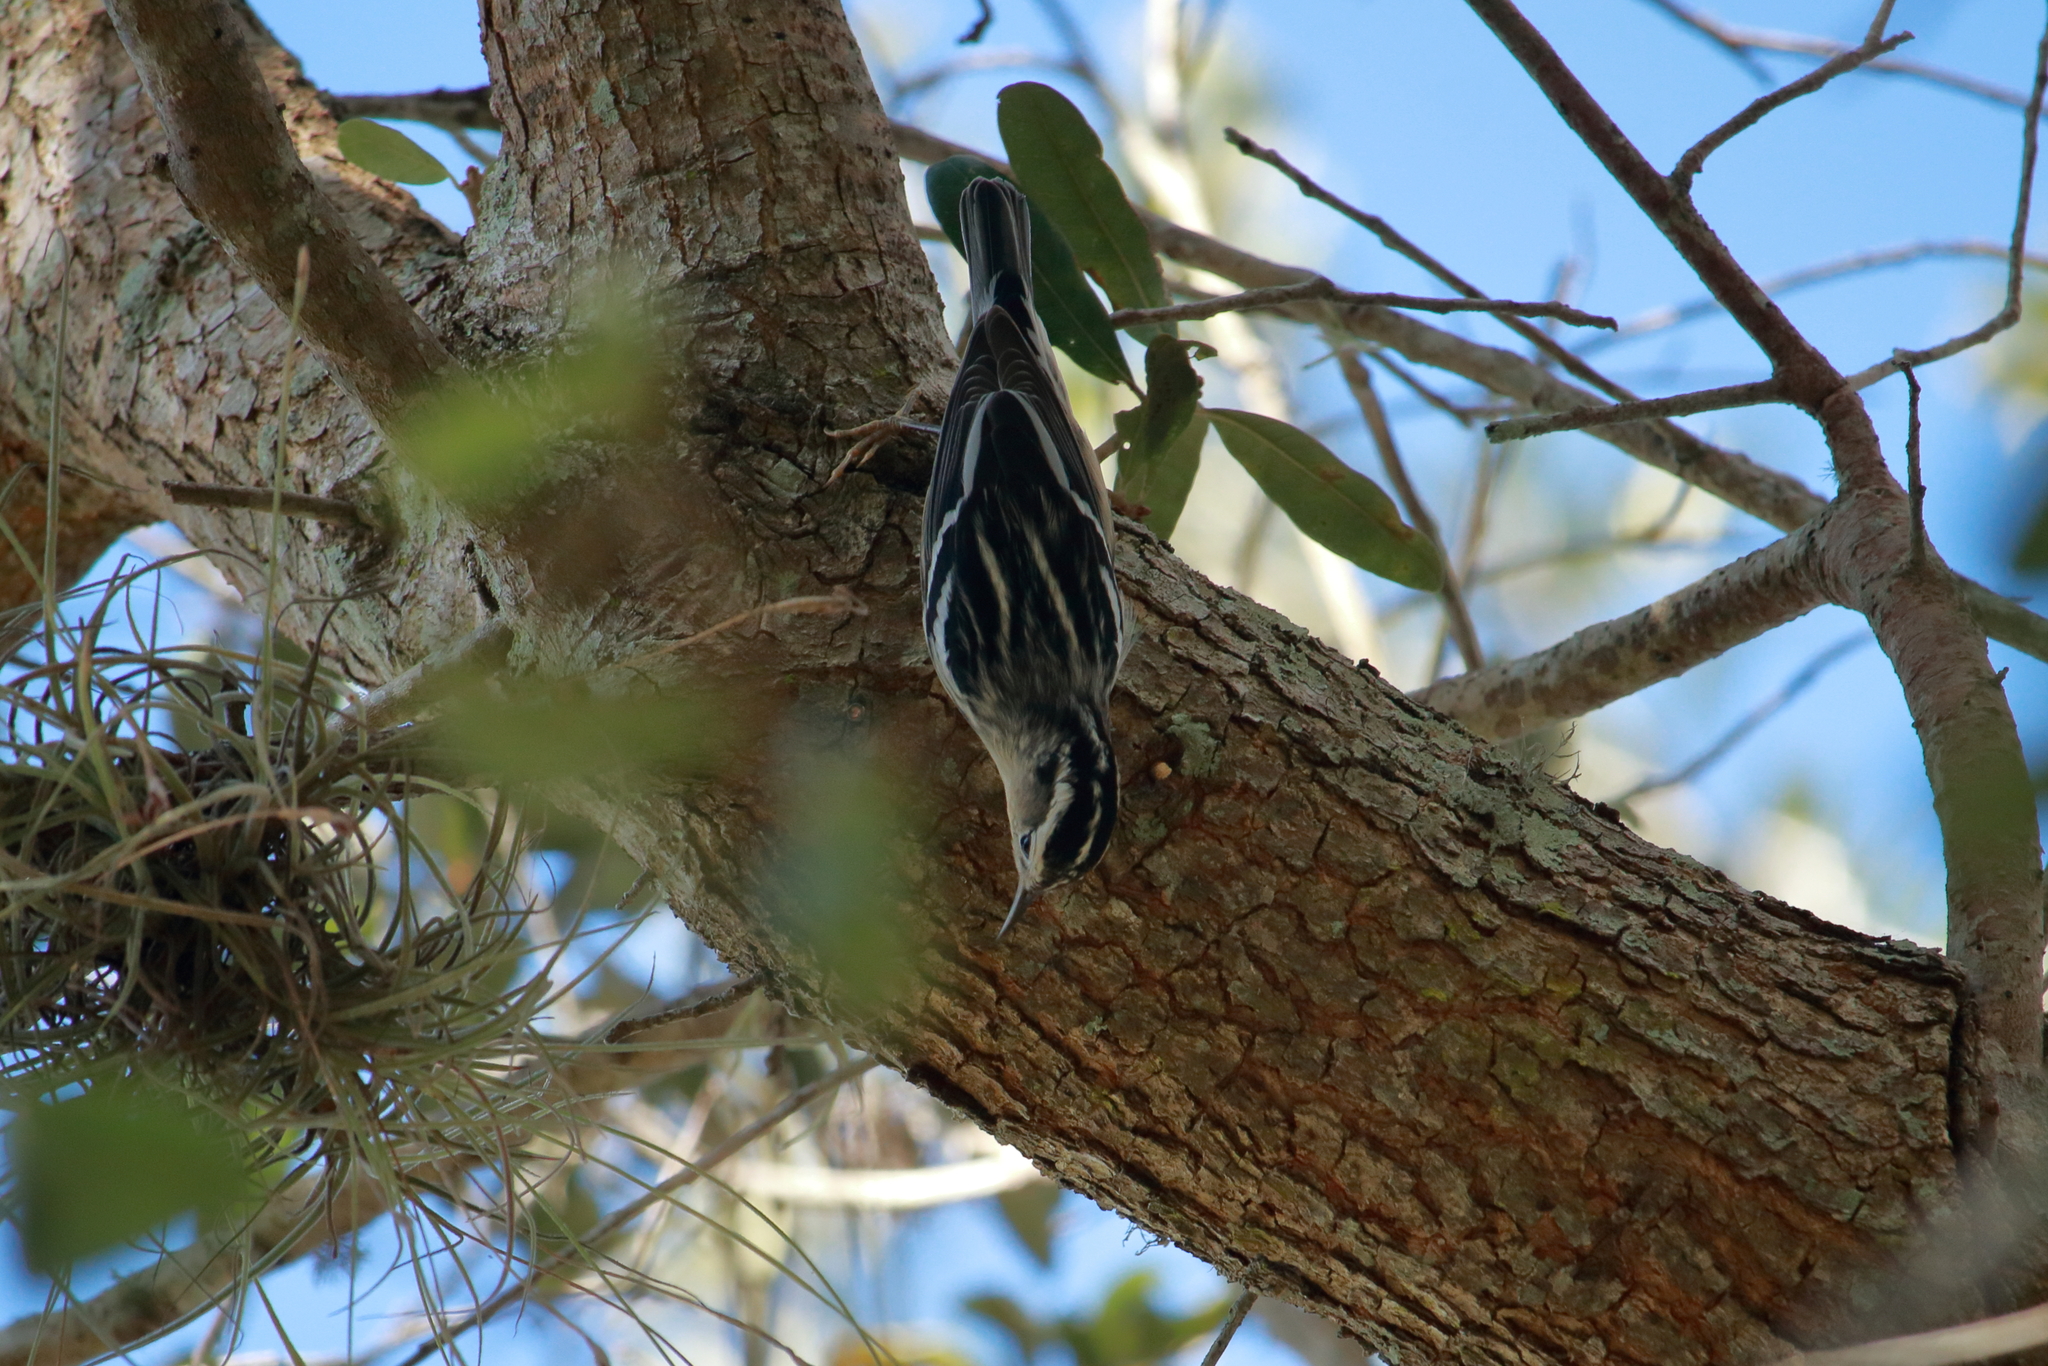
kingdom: Animalia
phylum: Chordata
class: Aves
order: Passeriformes
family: Parulidae
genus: Mniotilta
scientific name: Mniotilta varia
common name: Black-and-white warbler
